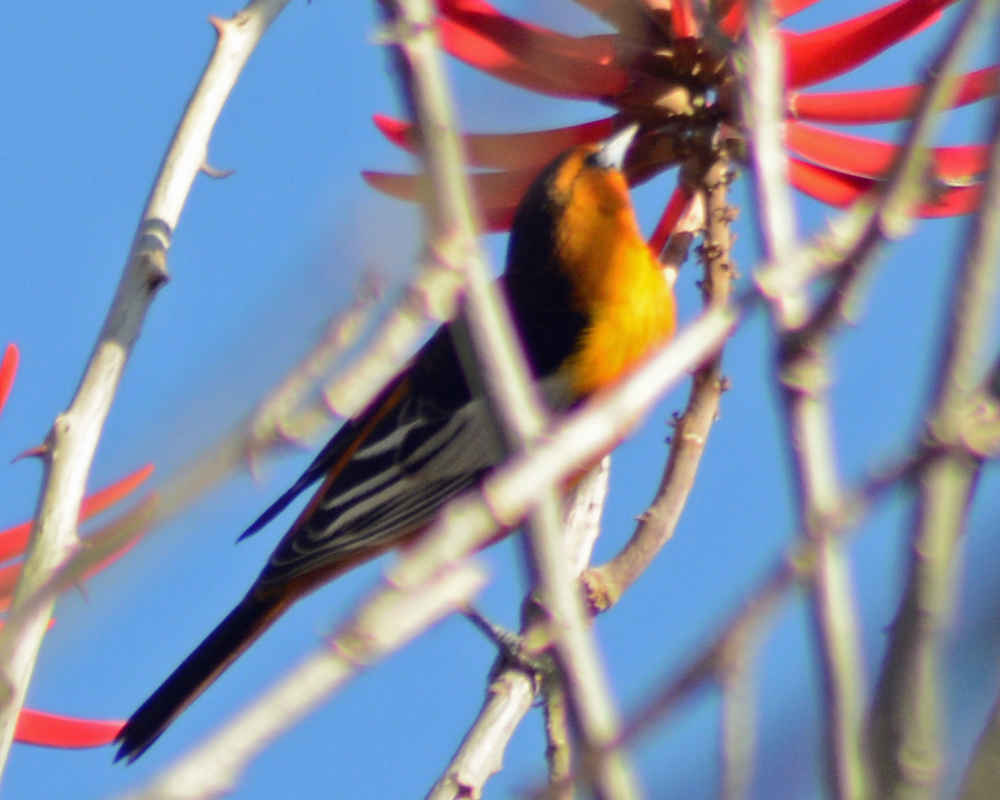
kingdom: Animalia
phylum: Chordata
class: Aves
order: Passeriformes
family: Icteridae
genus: Icterus
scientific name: Icterus bullockii
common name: Bullock's oriole
